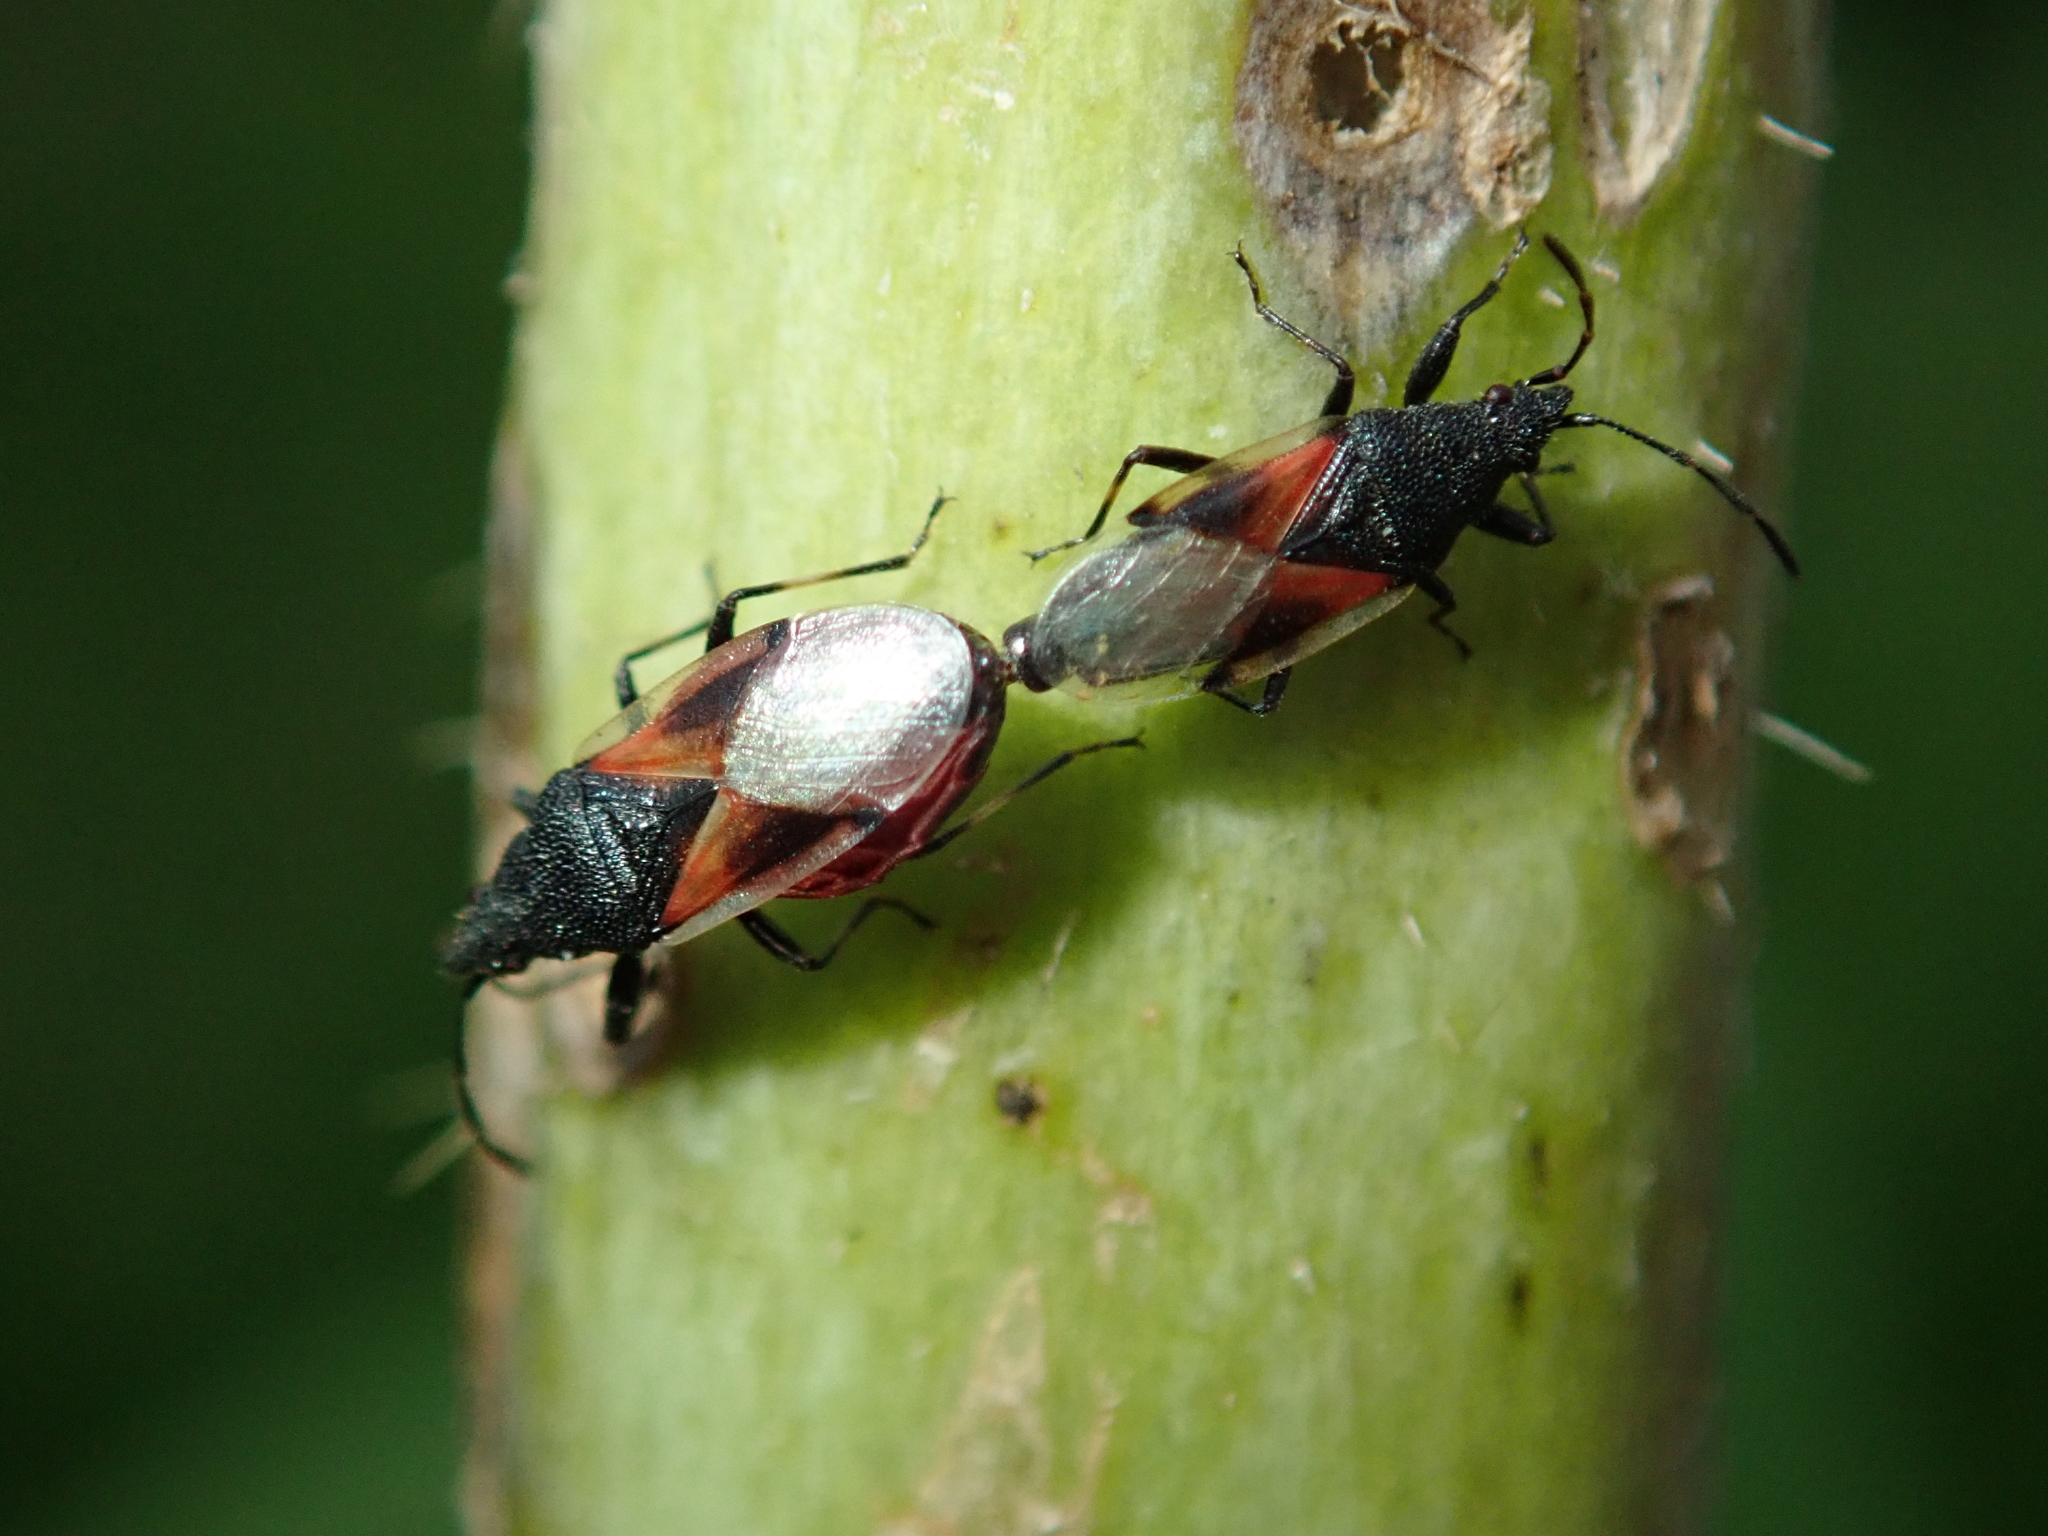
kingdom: Animalia
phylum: Arthropoda
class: Insecta
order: Hemiptera
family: Oxycarenidae
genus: Oxycarenus
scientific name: Oxycarenus lavaterae
